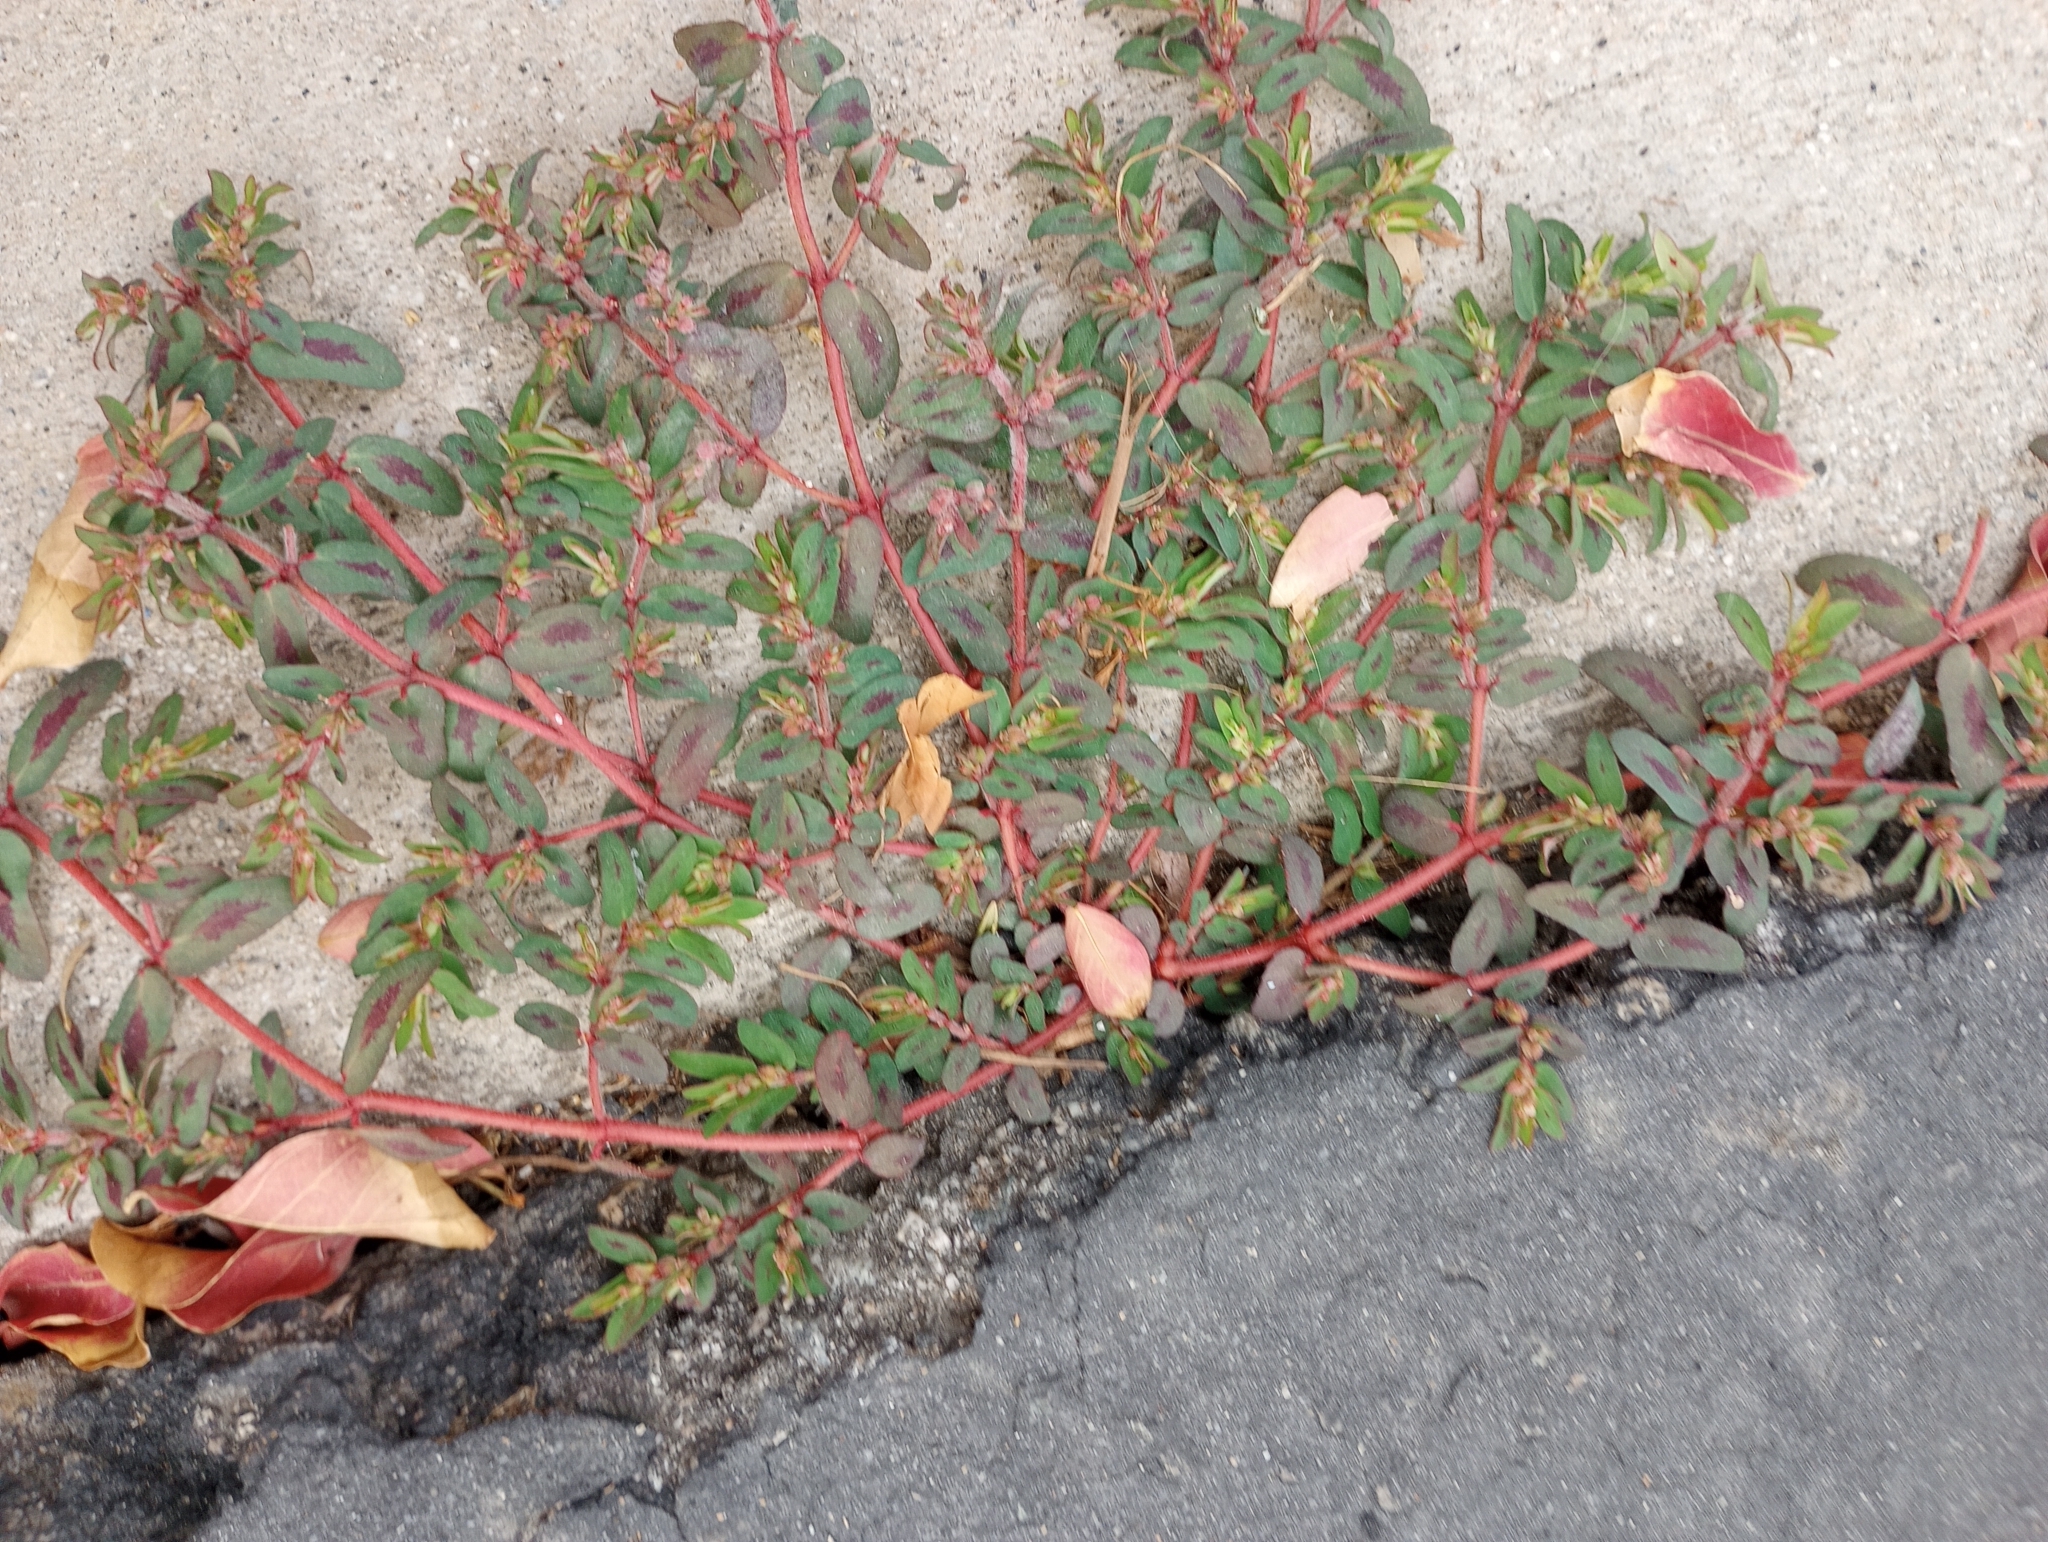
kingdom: Plantae
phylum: Tracheophyta
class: Magnoliopsida
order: Malpighiales
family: Euphorbiaceae
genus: Euphorbia
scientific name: Euphorbia maculata
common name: Spotted spurge
